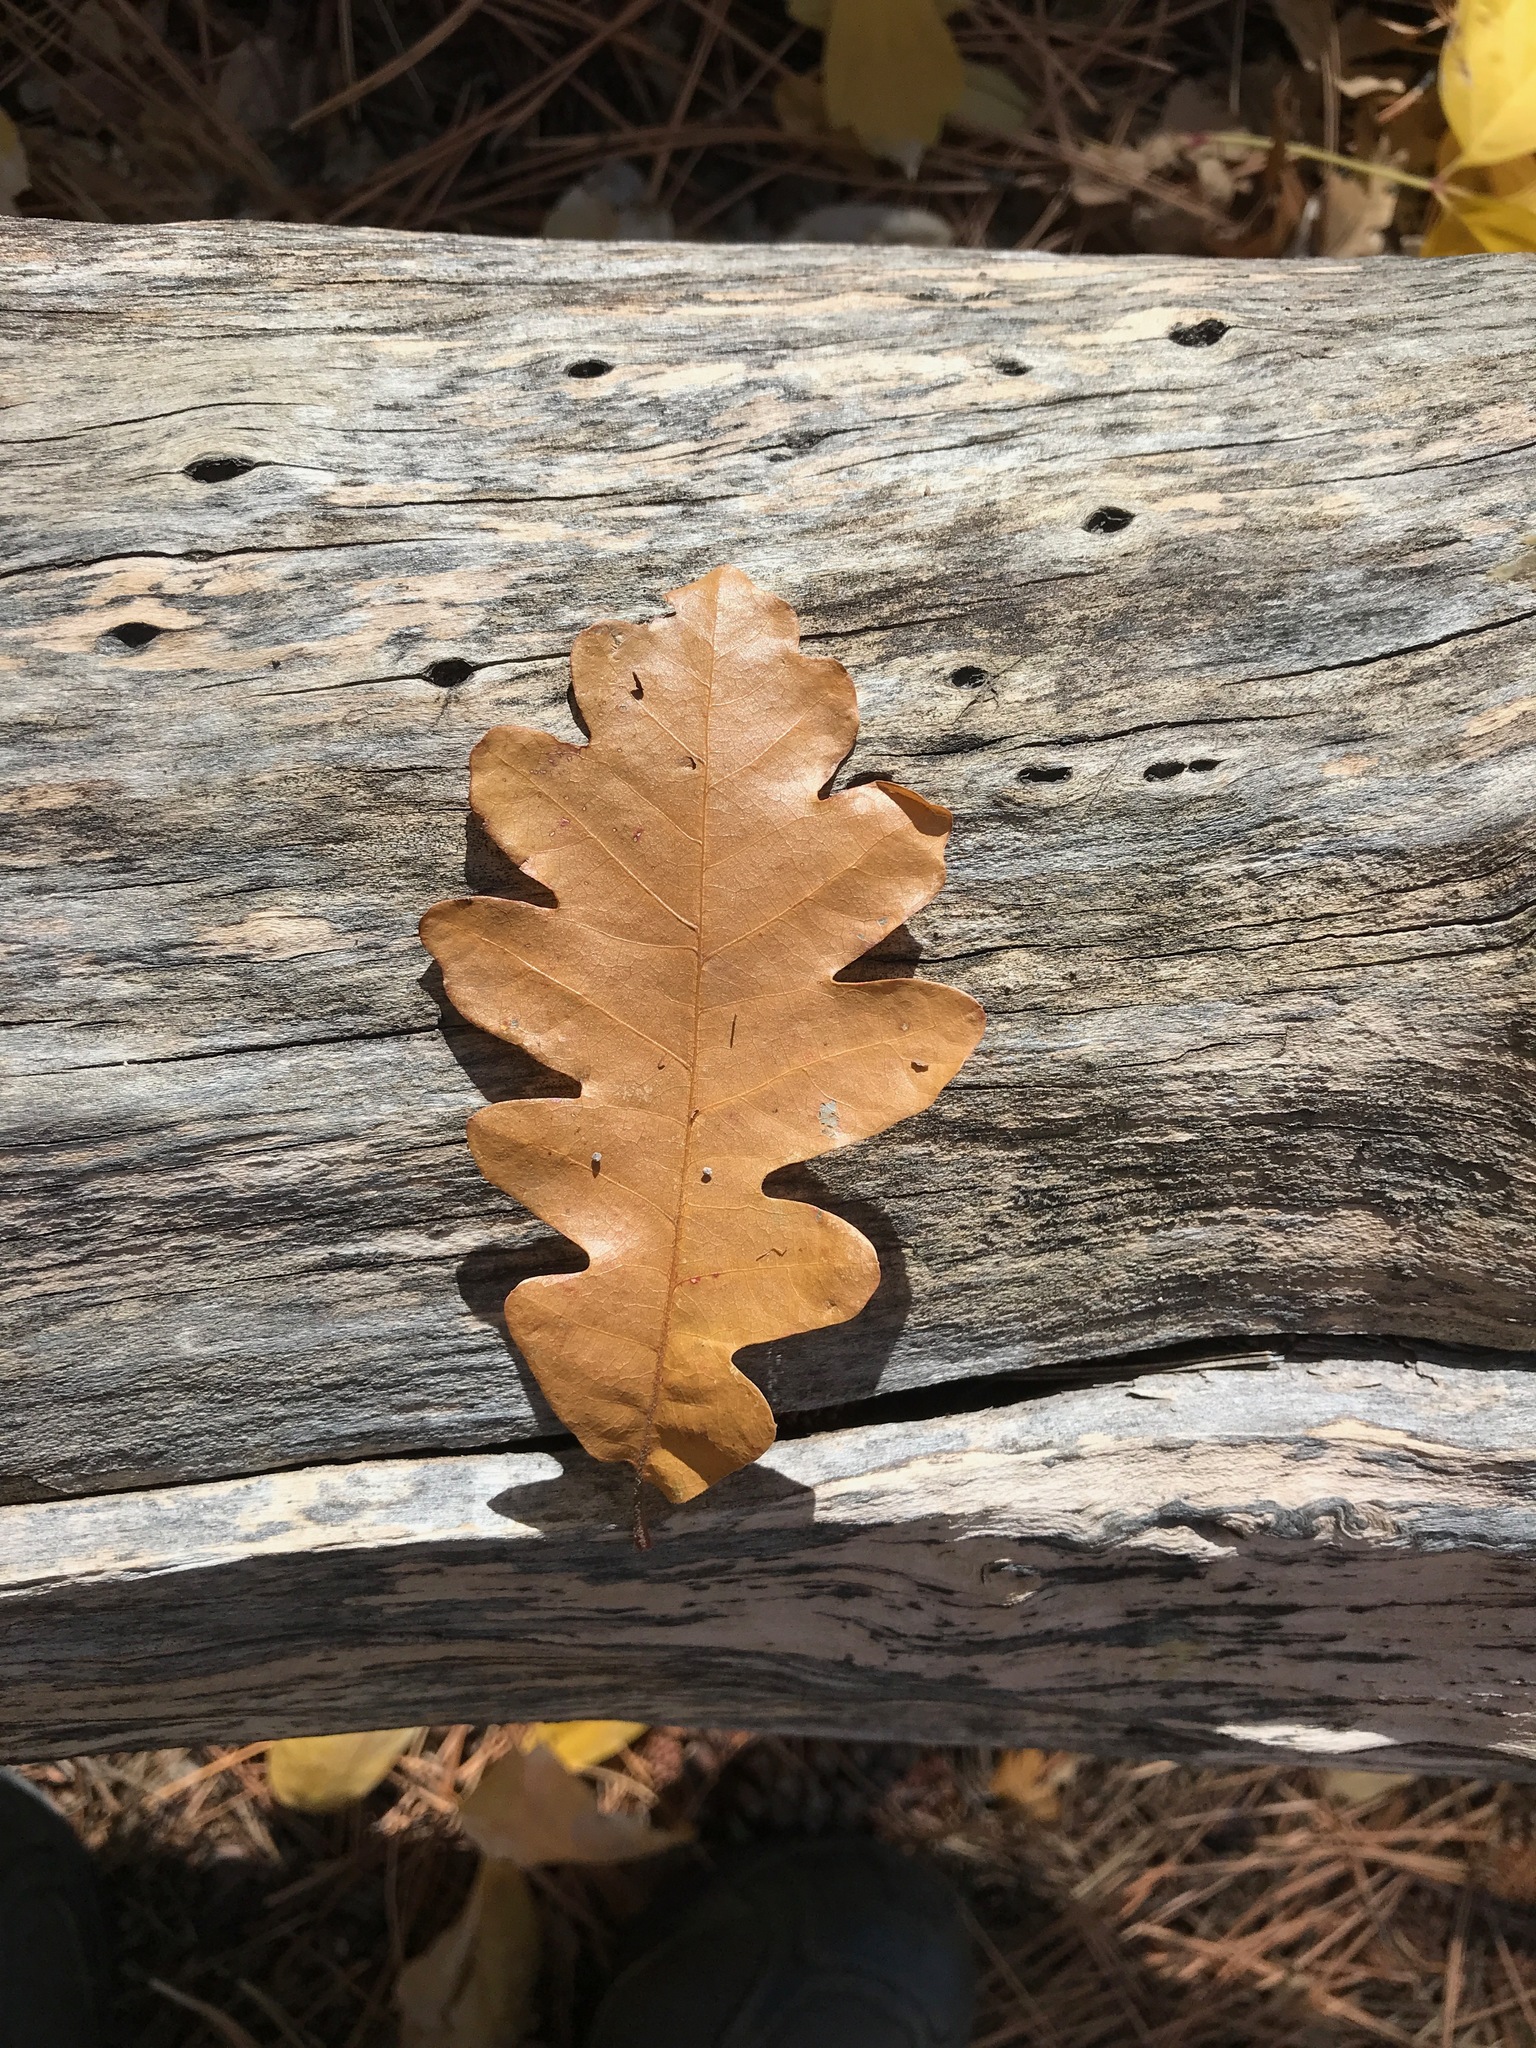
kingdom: Plantae
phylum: Tracheophyta
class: Magnoliopsida
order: Fagales
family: Fagaceae
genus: Quercus
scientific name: Quercus gambelii
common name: Gambel oak
